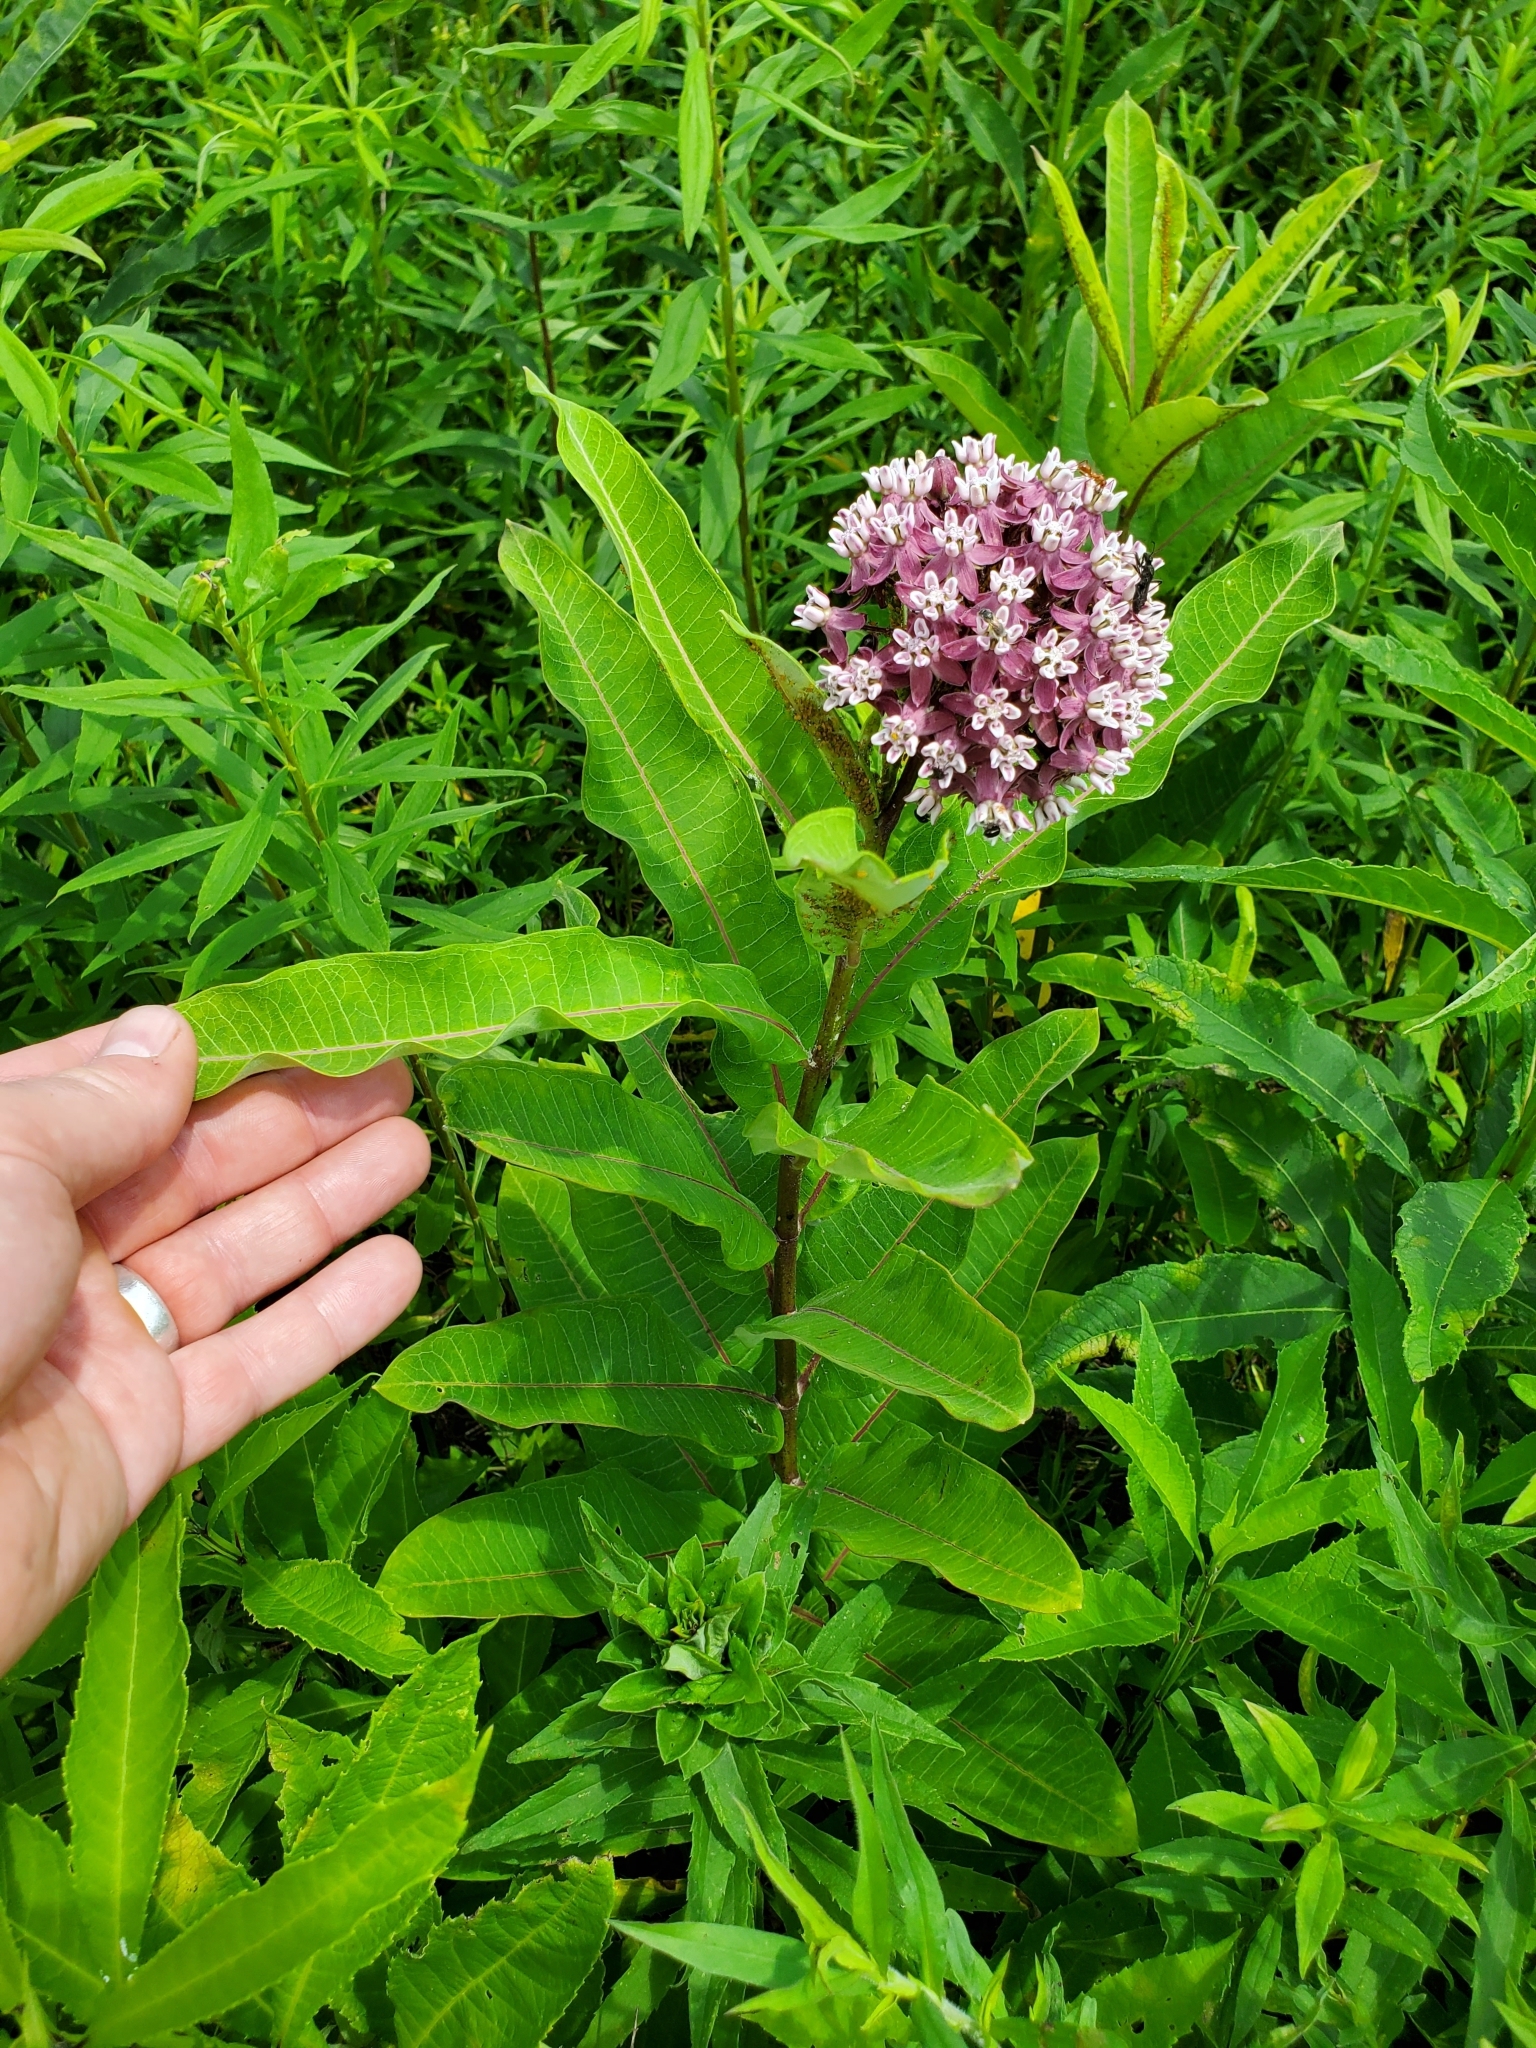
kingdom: Plantae
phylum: Tracheophyta
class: Magnoliopsida
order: Gentianales
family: Apocynaceae
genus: Asclepias
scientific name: Asclepias syriaca
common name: Common milkweed
